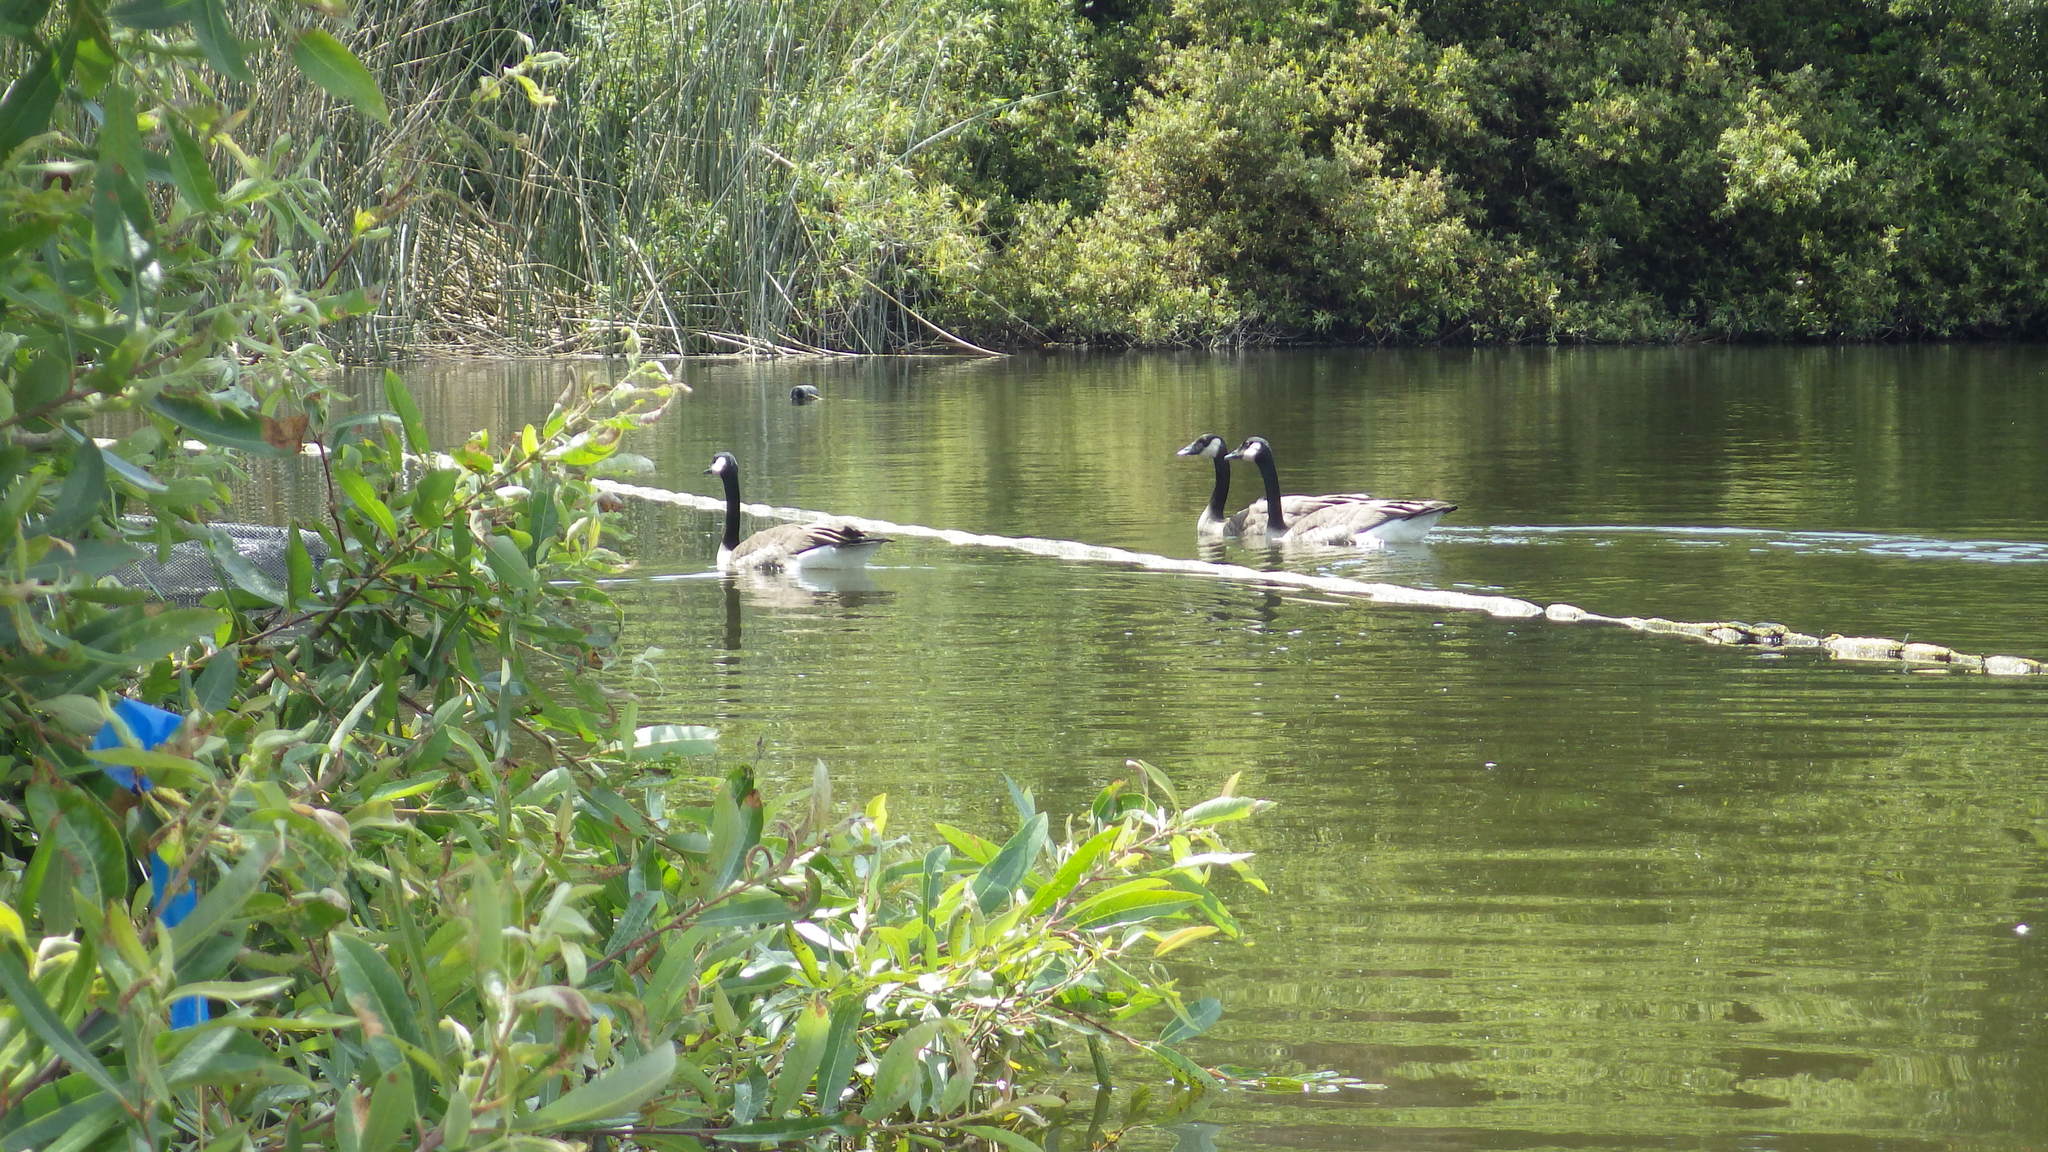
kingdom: Animalia
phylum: Chordata
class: Aves
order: Anseriformes
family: Anatidae
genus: Branta
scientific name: Branta canadensis
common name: Canada goose
